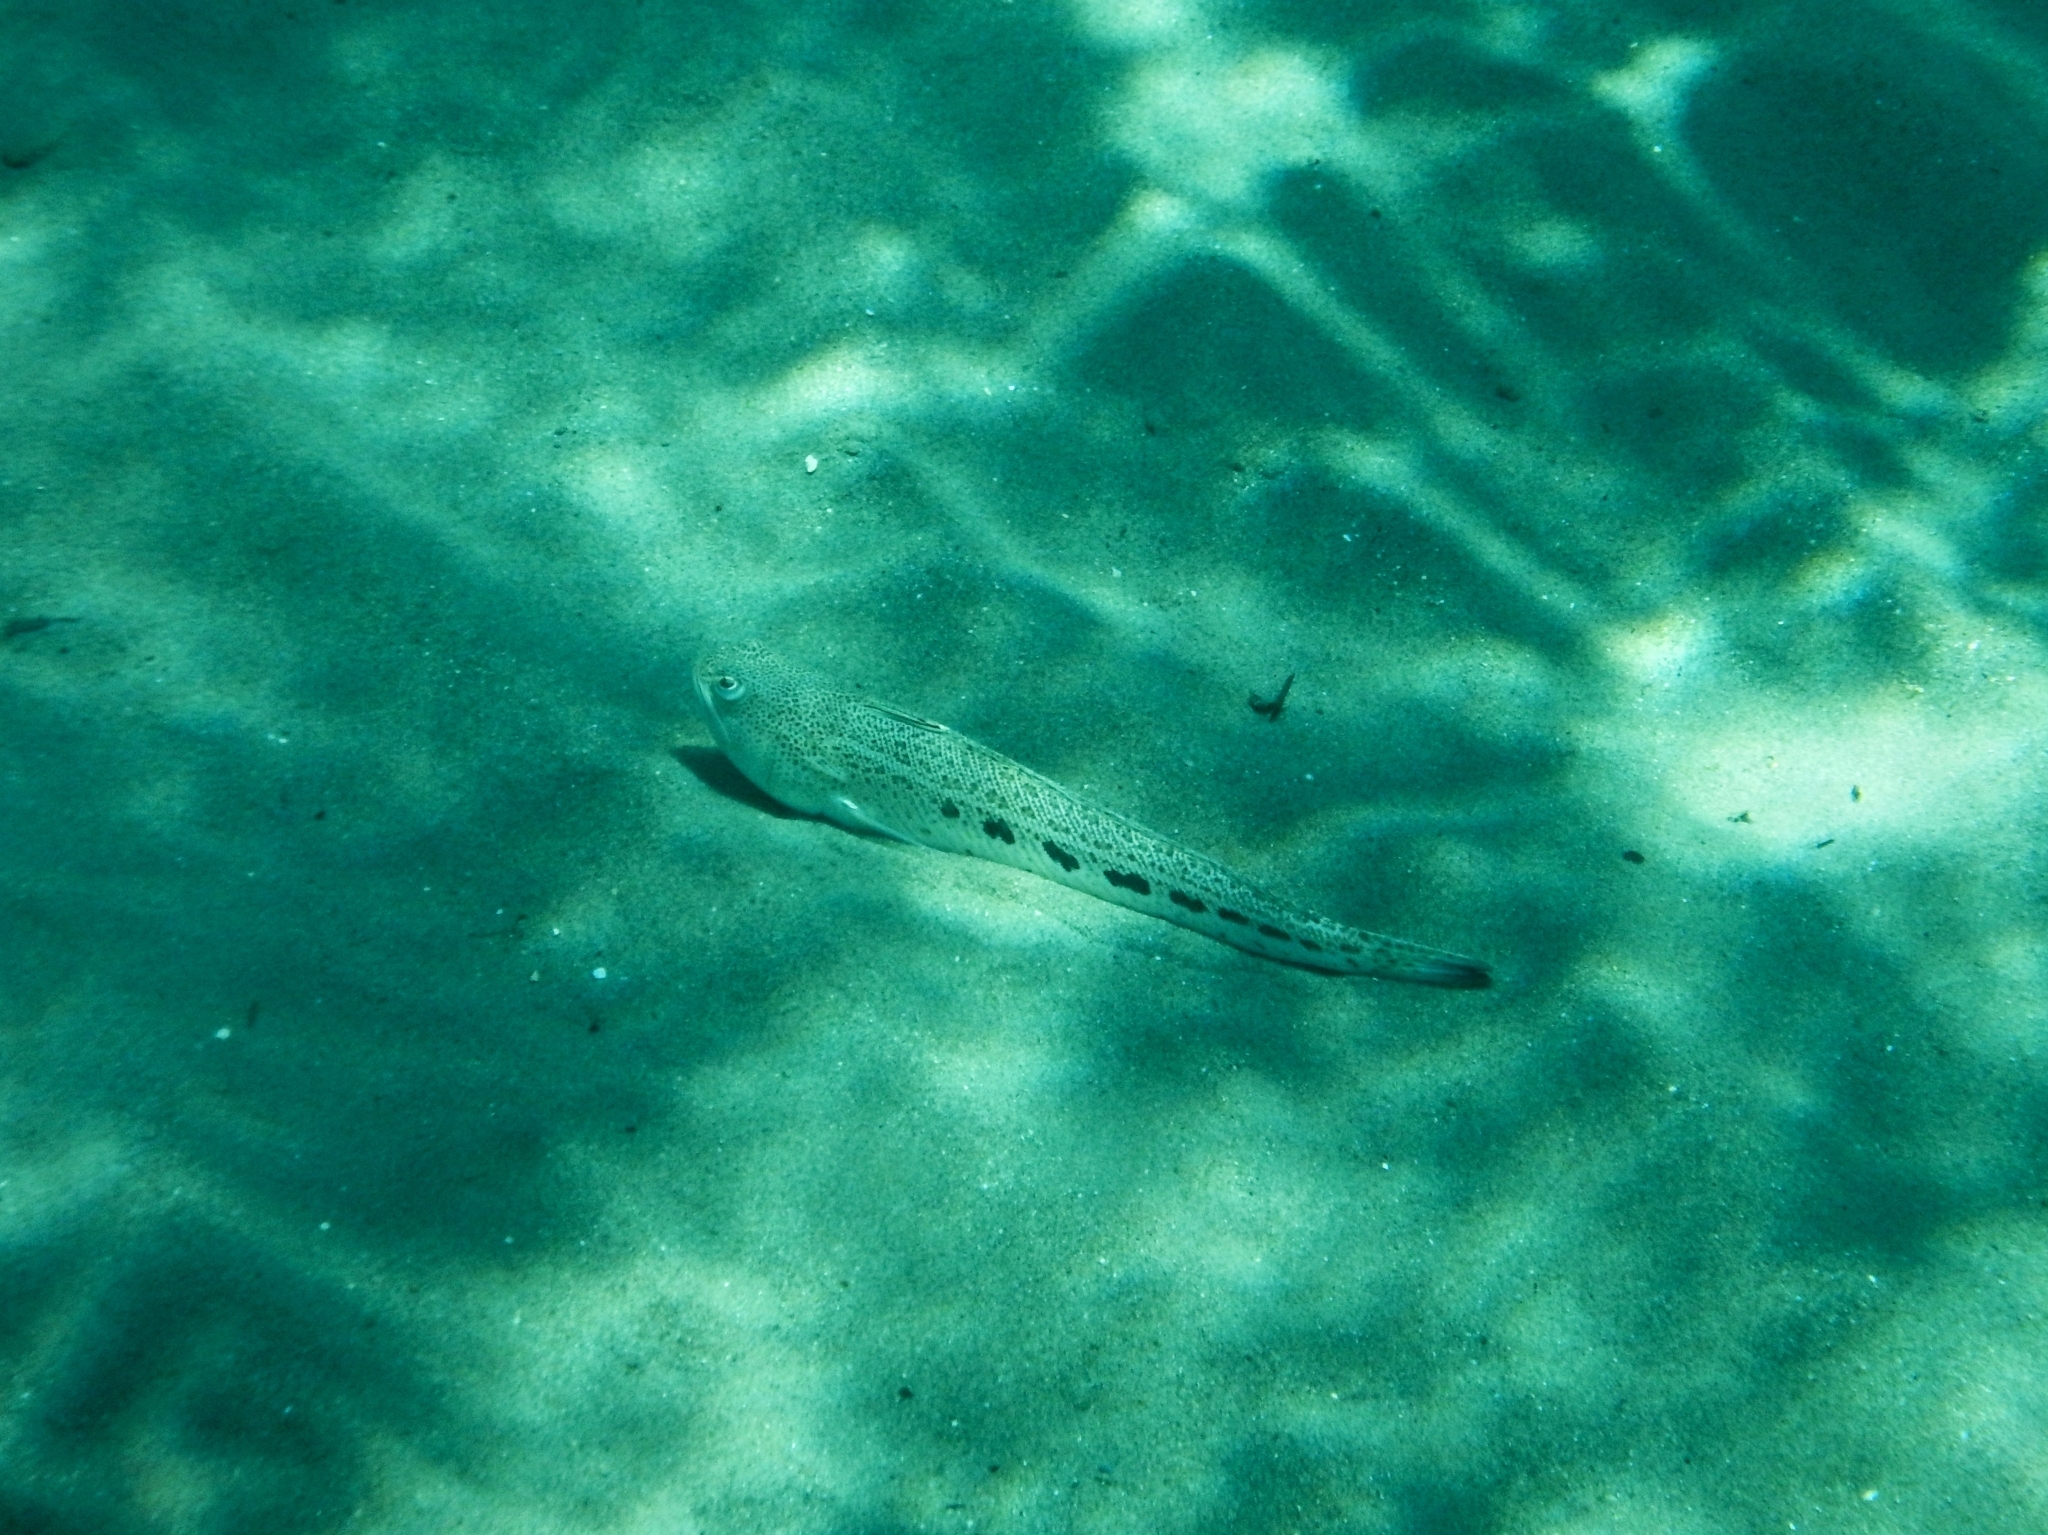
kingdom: Animalia
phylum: Chordata
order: Perciformes
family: Trachinidae
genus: Trachinus
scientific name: Trachinus araneus
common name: Spotted weever
